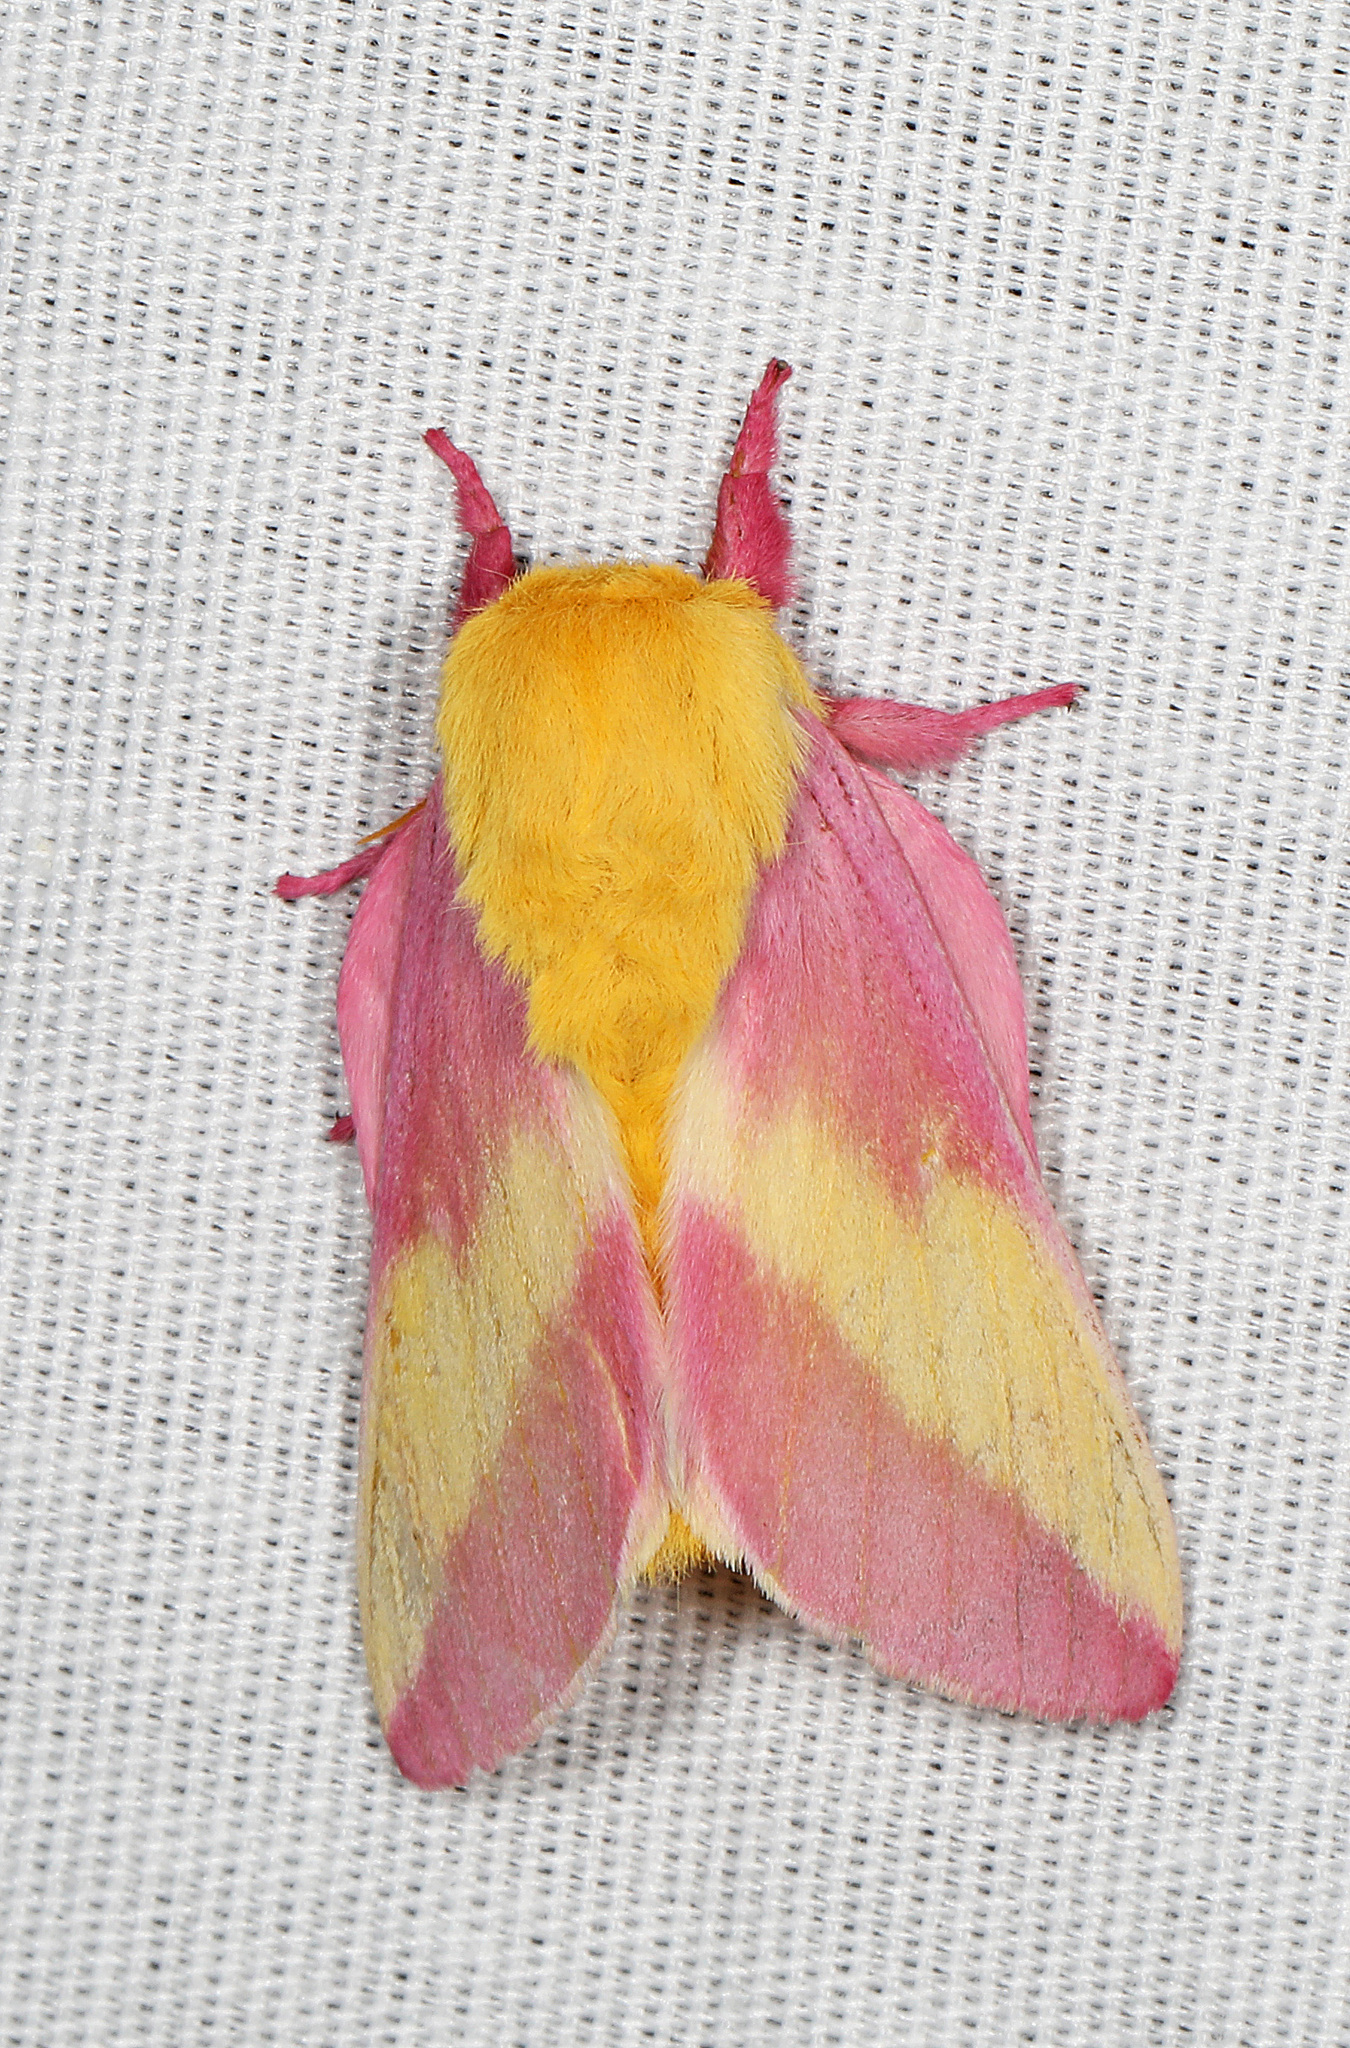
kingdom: Animalia
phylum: Arthropoda
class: Insecta
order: Lepidoptera
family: Saturniidae
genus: Dryocampa
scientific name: Dryocampa rubicunda
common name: Rosy maple moth
